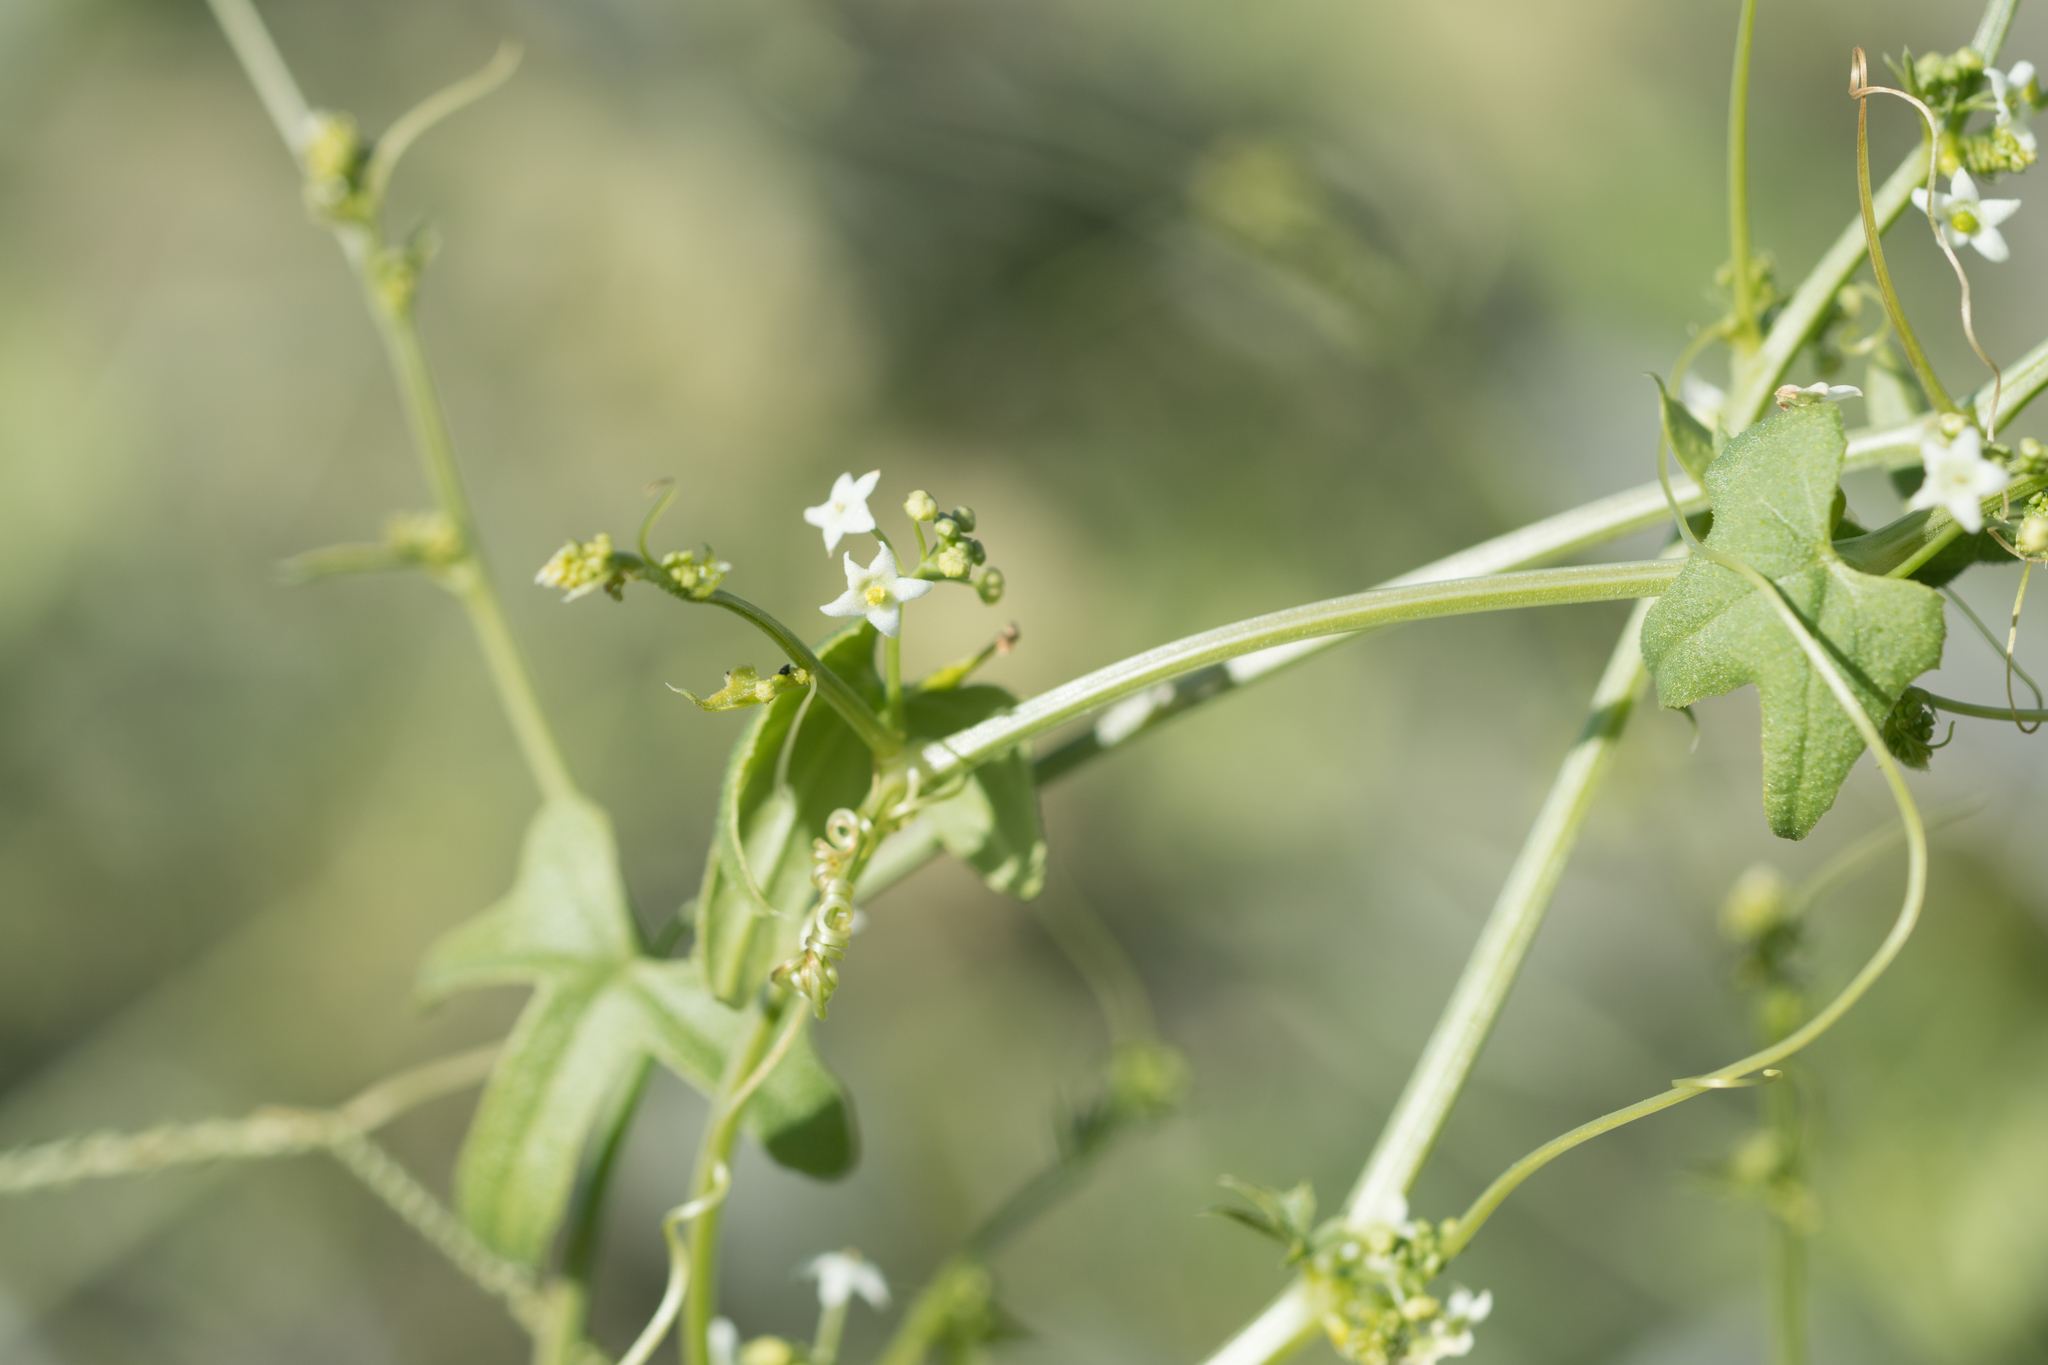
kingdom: Plantae
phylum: Tracheophyta
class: Magnoliopsida
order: Cucurbitales
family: Cucurbitaceae
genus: Echinopepon
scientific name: Echinopepon bigelovii
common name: Desert starvine
